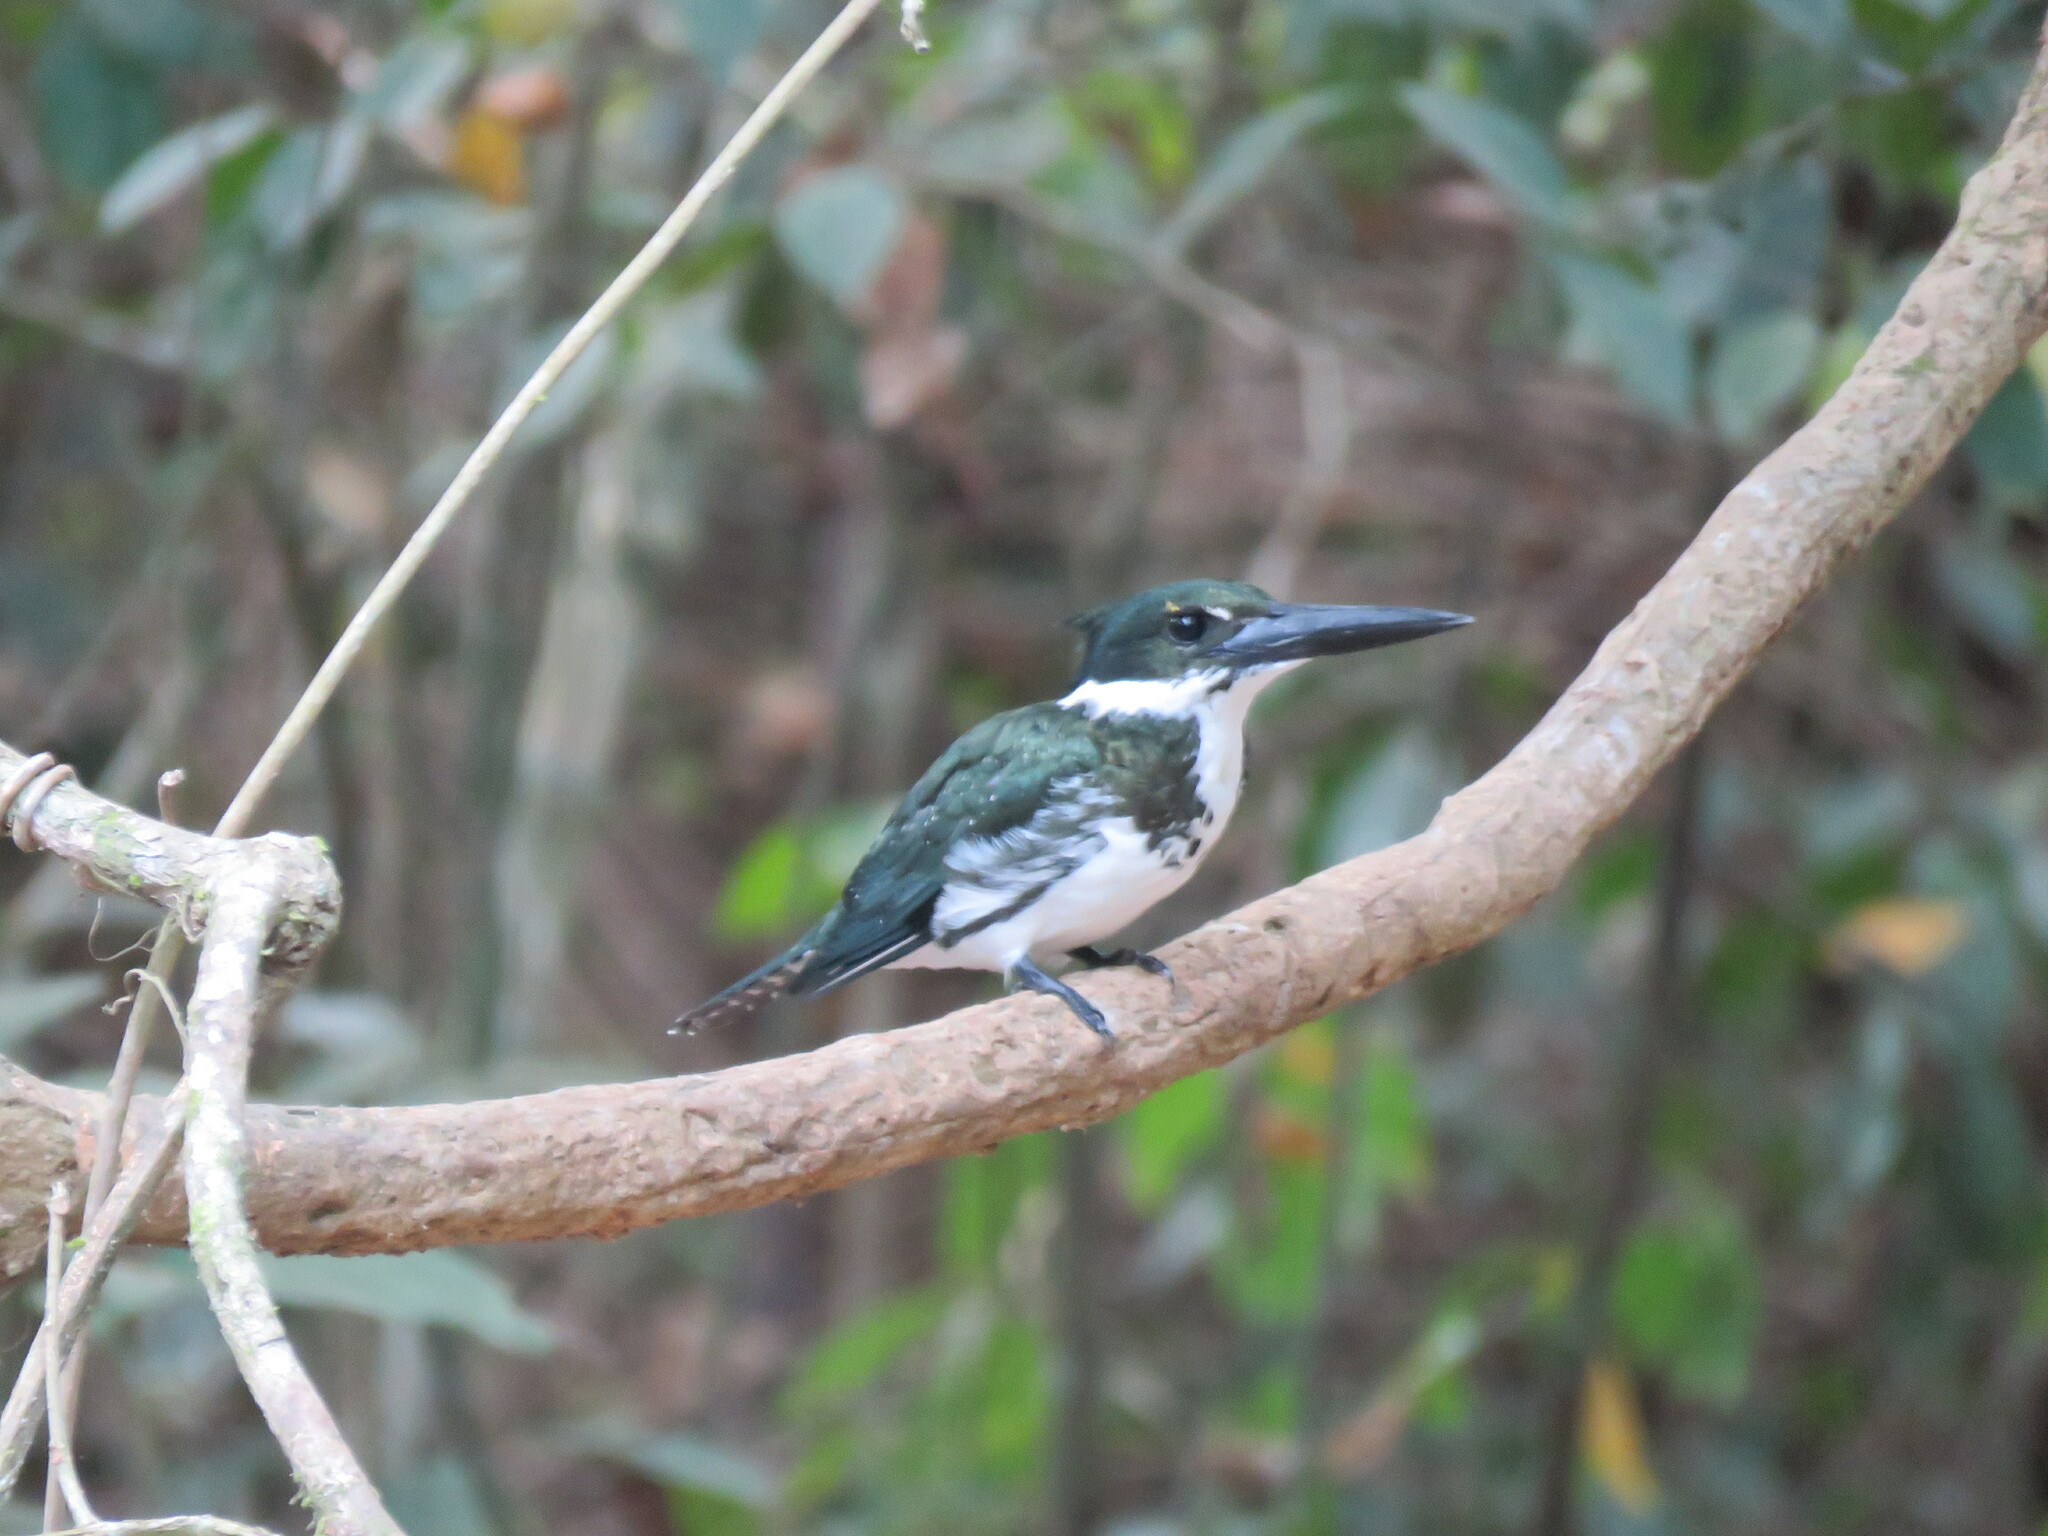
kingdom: Animalia
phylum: Chordata
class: Aves
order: Coraciiformes
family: Alcedinidae
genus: Chloroceryle
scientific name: Chloroceryle amazona
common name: Amazon kingfisher
